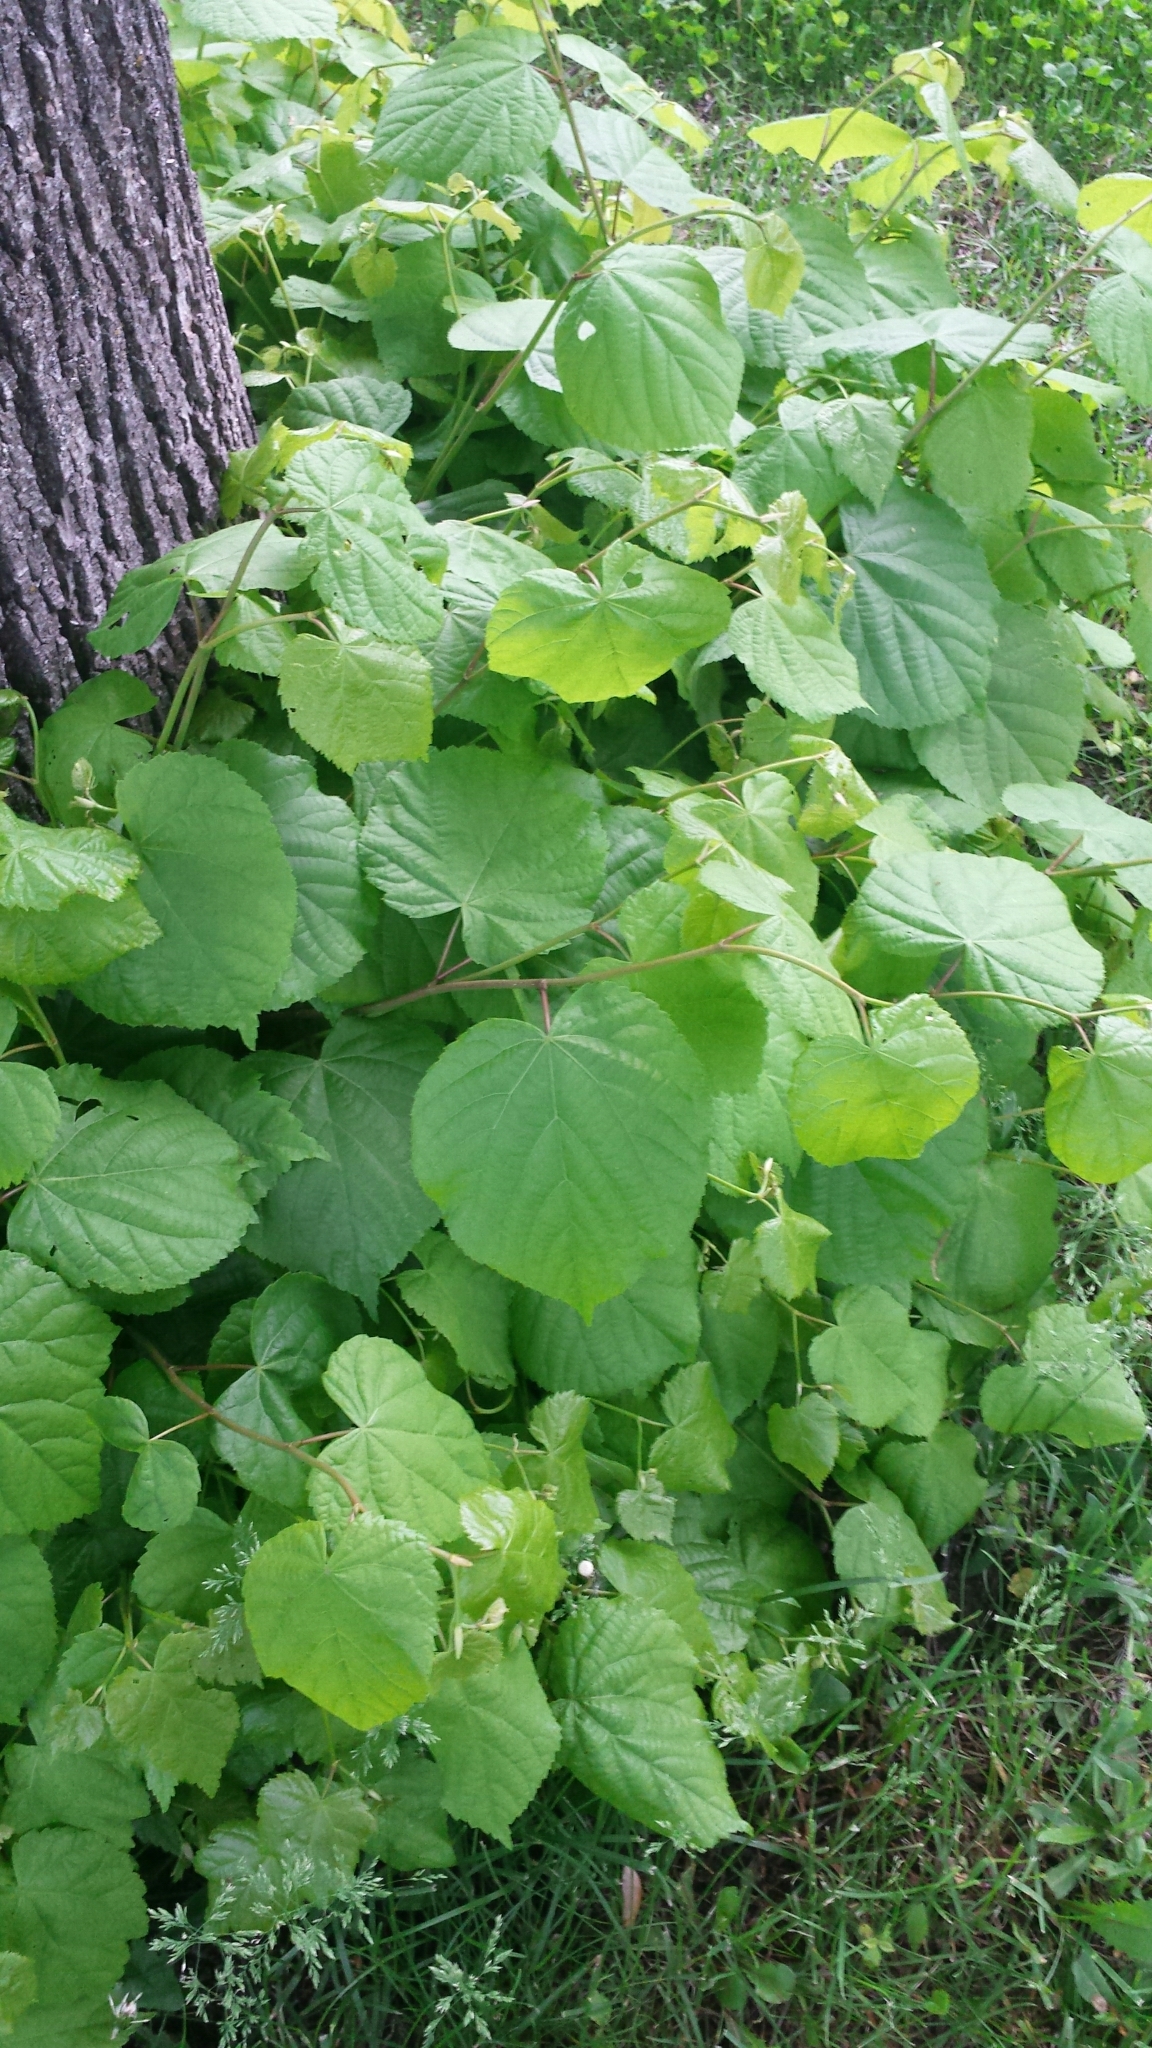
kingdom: Plantae
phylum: Tracheophyta
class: Magnoliopsida
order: Malvales
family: Malvaceae
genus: Tilia
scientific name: Tilia americana
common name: Basswood
